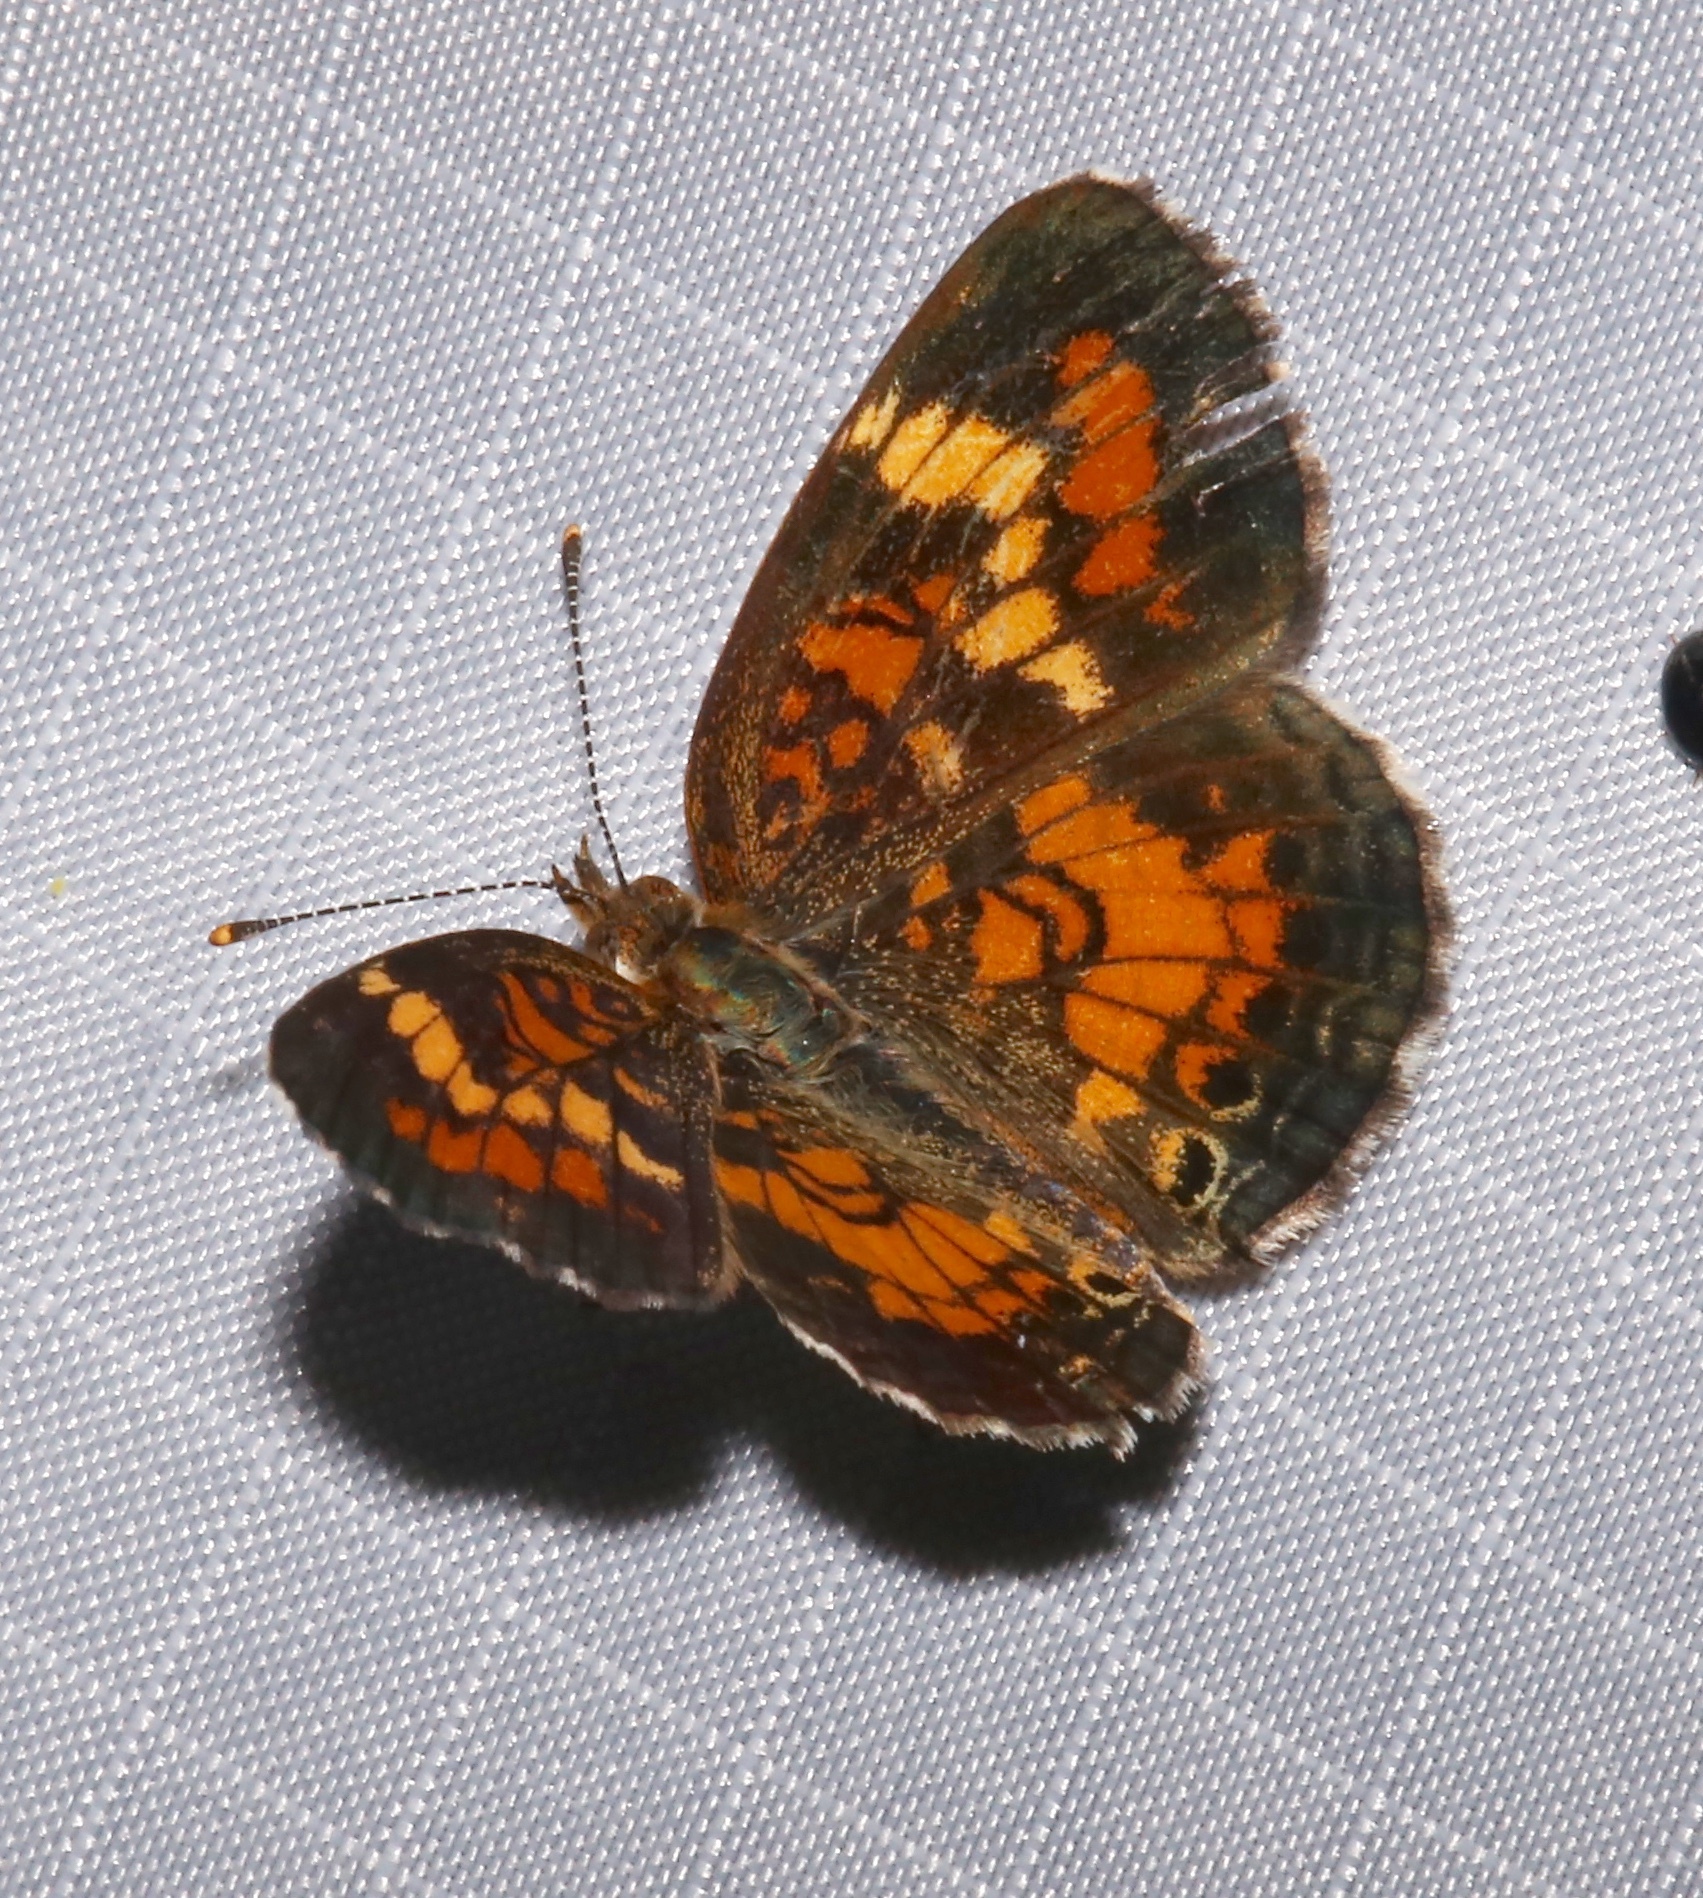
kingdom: Animalia
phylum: Arthropoda
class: Insecta
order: Lepidoptera
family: Nymphalidae
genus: Phyciodes
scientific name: Phyciodes phaon
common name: Phaon crescent
